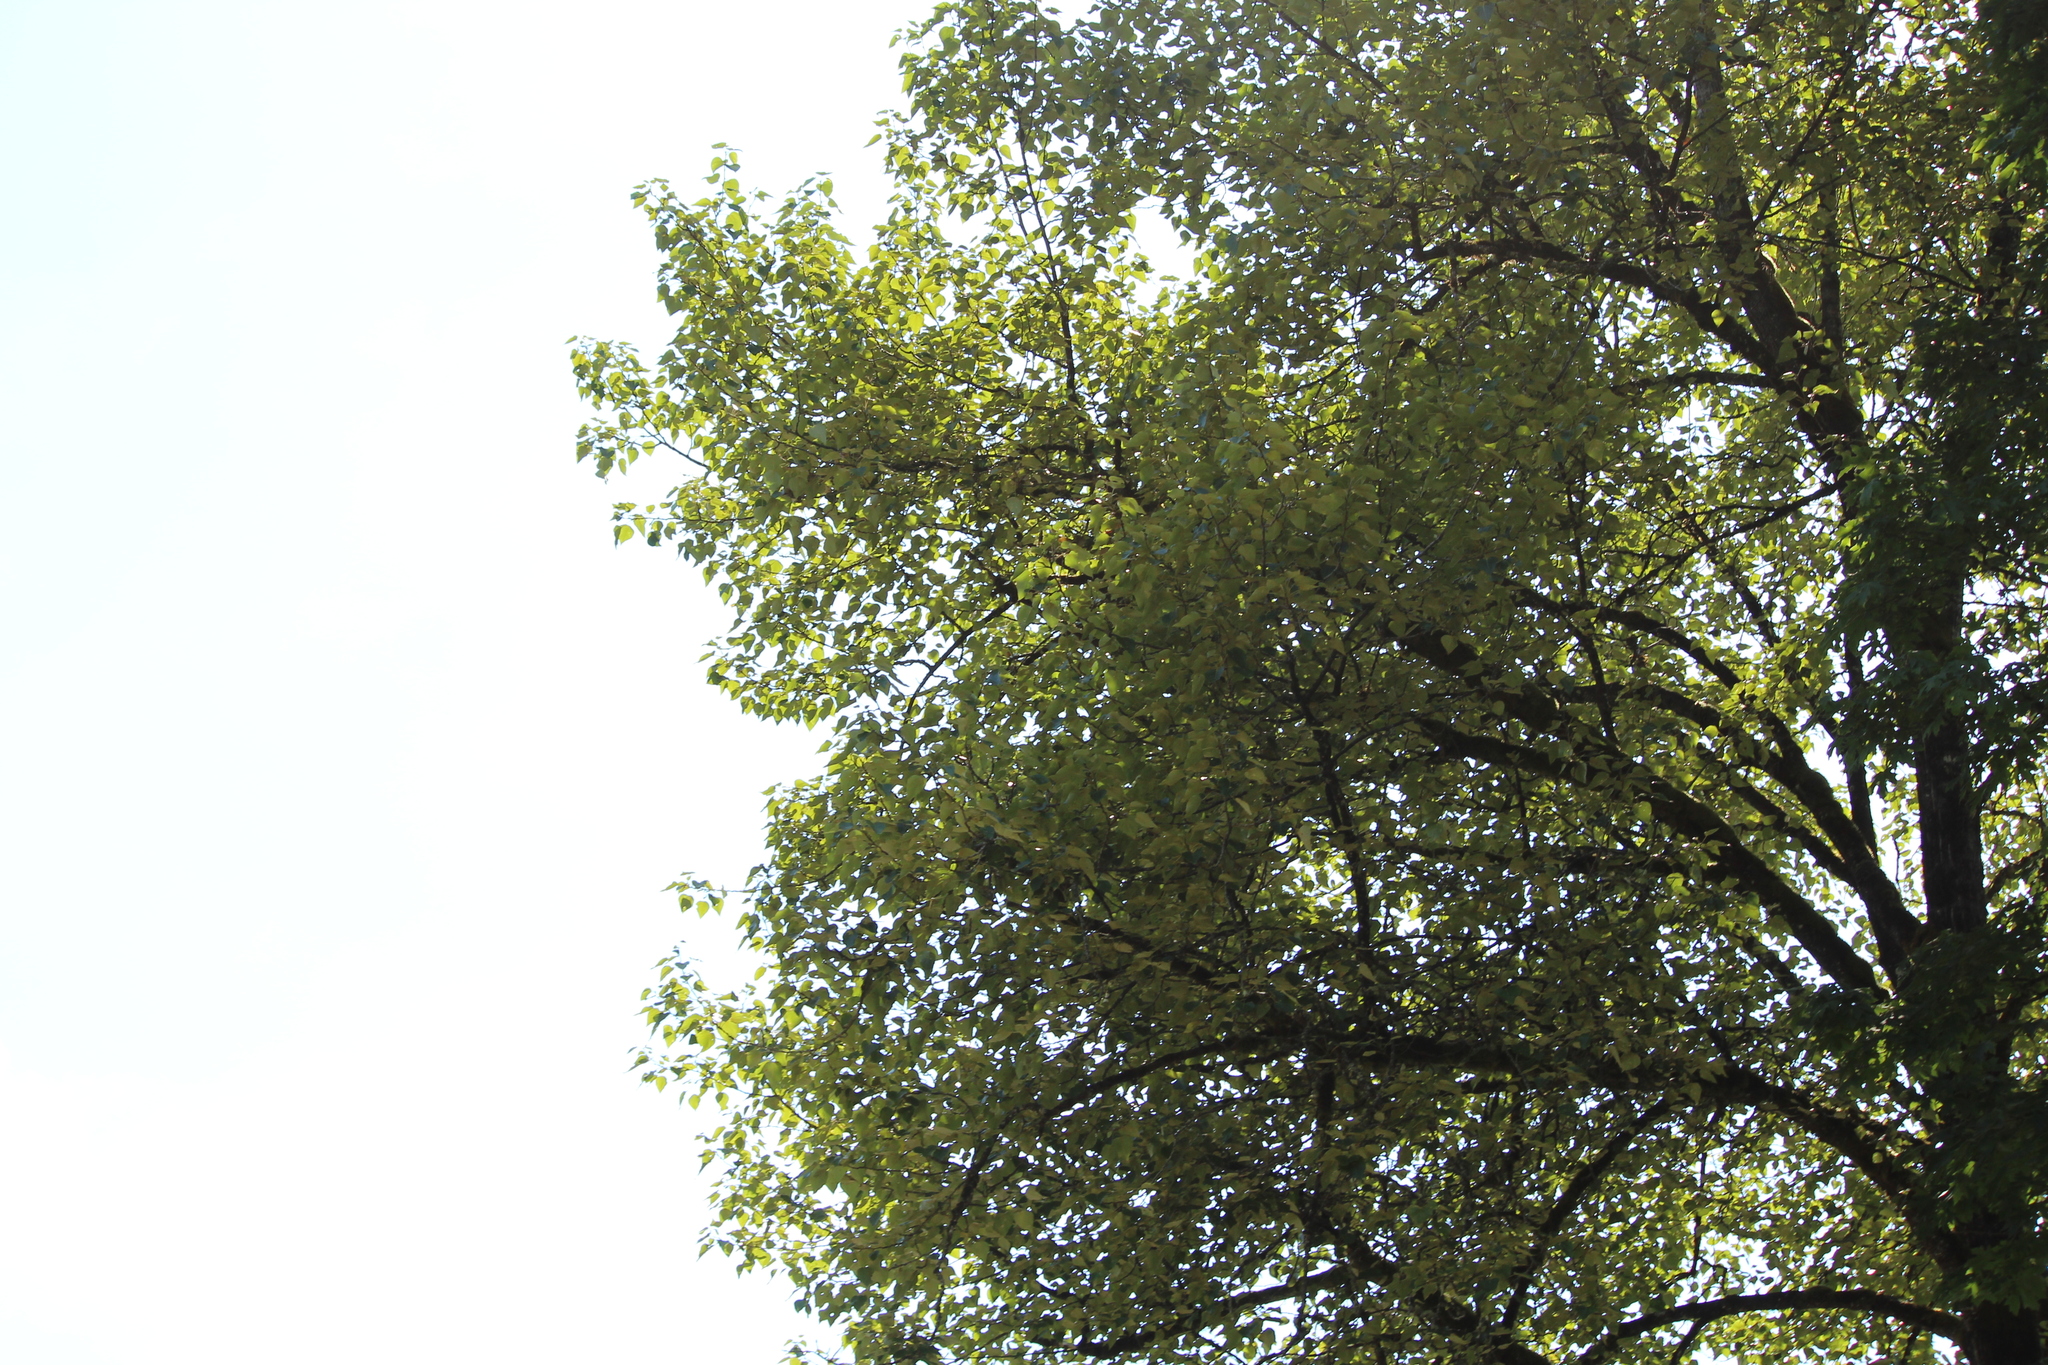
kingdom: Plantae
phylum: Tracheophyta
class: Magnoliopsida
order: Malpighiales
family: Salicaceae
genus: Populus
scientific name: Populus trichocarpa
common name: Black cottonwood
